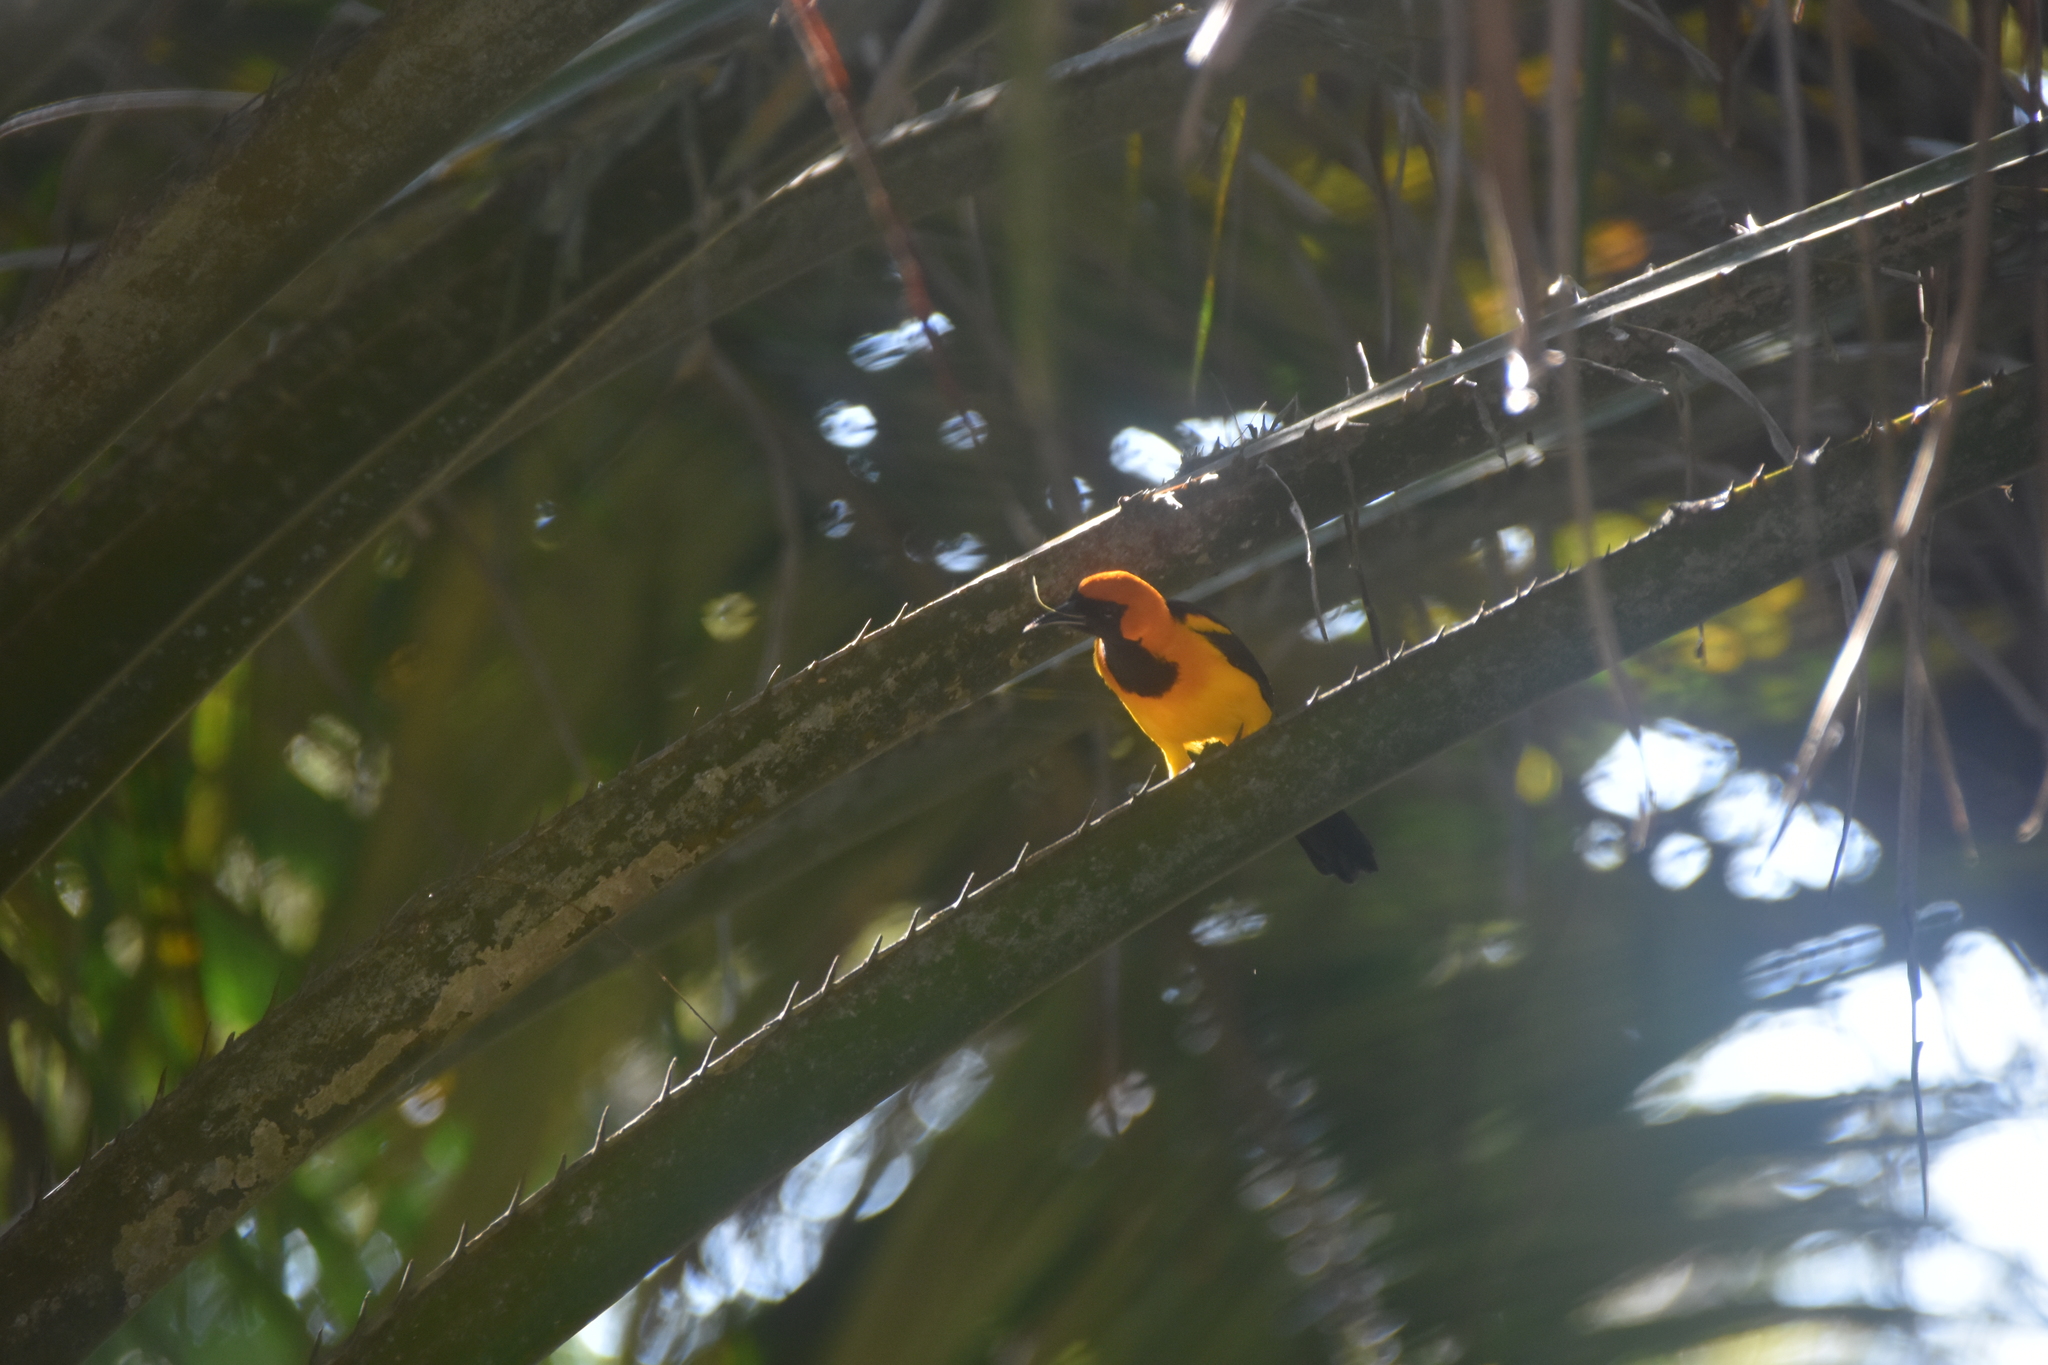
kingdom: Animalia
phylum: Chordata
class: Aves
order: Passeriformes
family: Icteridae
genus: Icterus
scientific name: Icterus auricapillus
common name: Orange-crowned oriole
